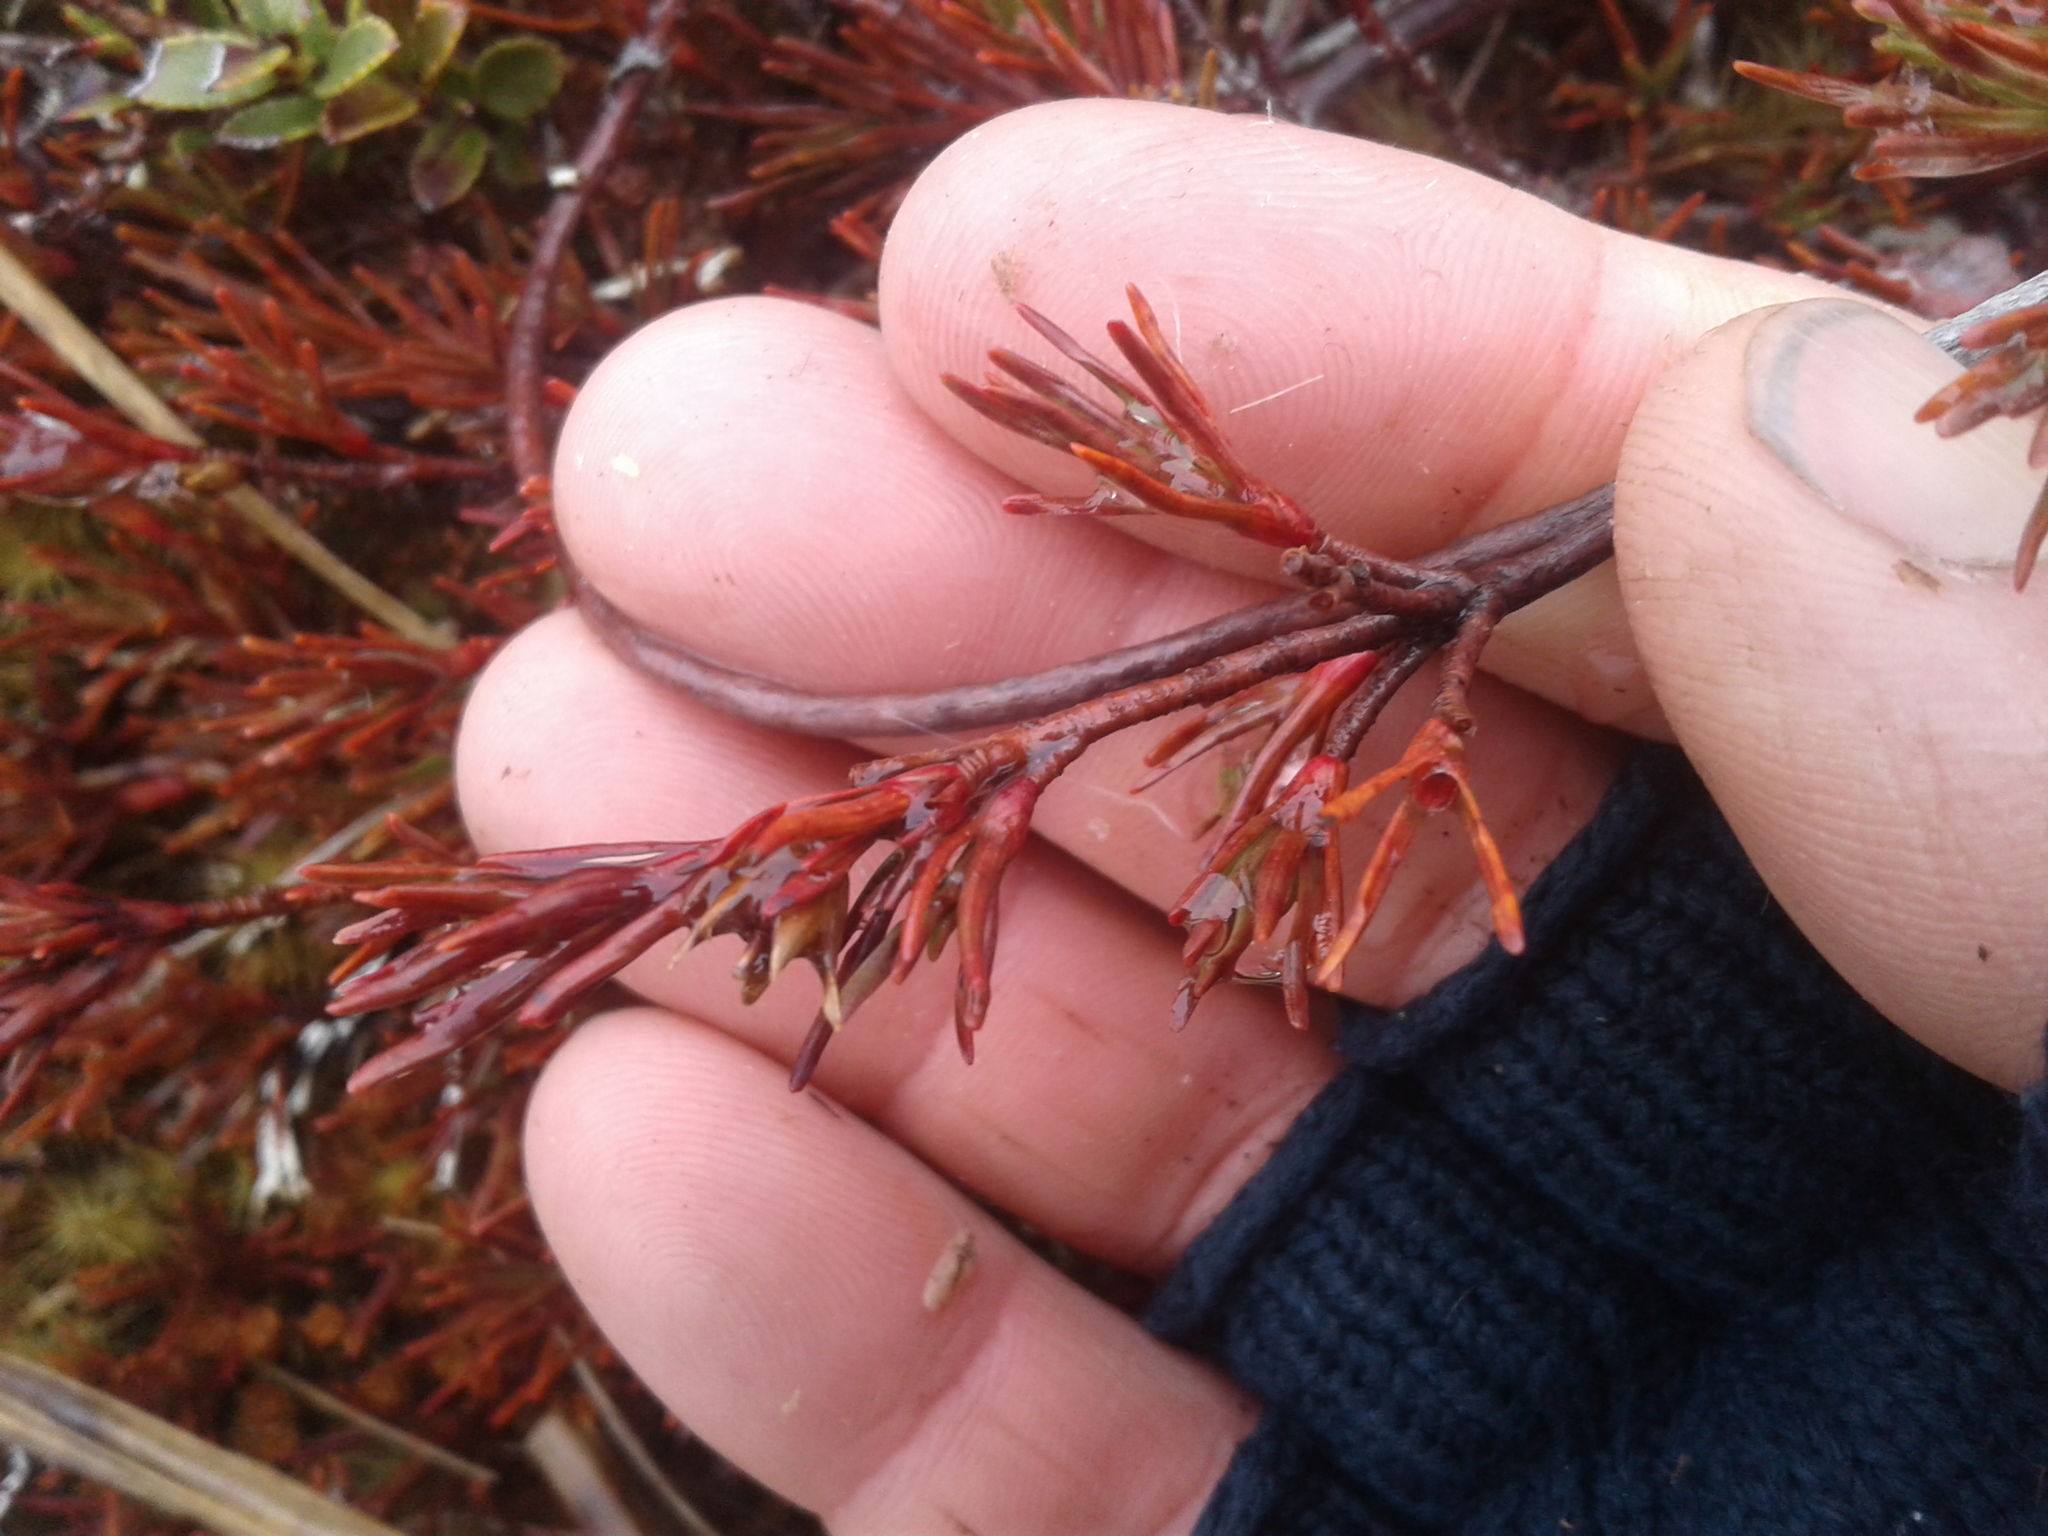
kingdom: Plantae
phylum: Tracheophyta
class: Magnoliopsida
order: Ericales
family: Ericaceae
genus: Dracophyllum
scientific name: Dracophyllum pronum
